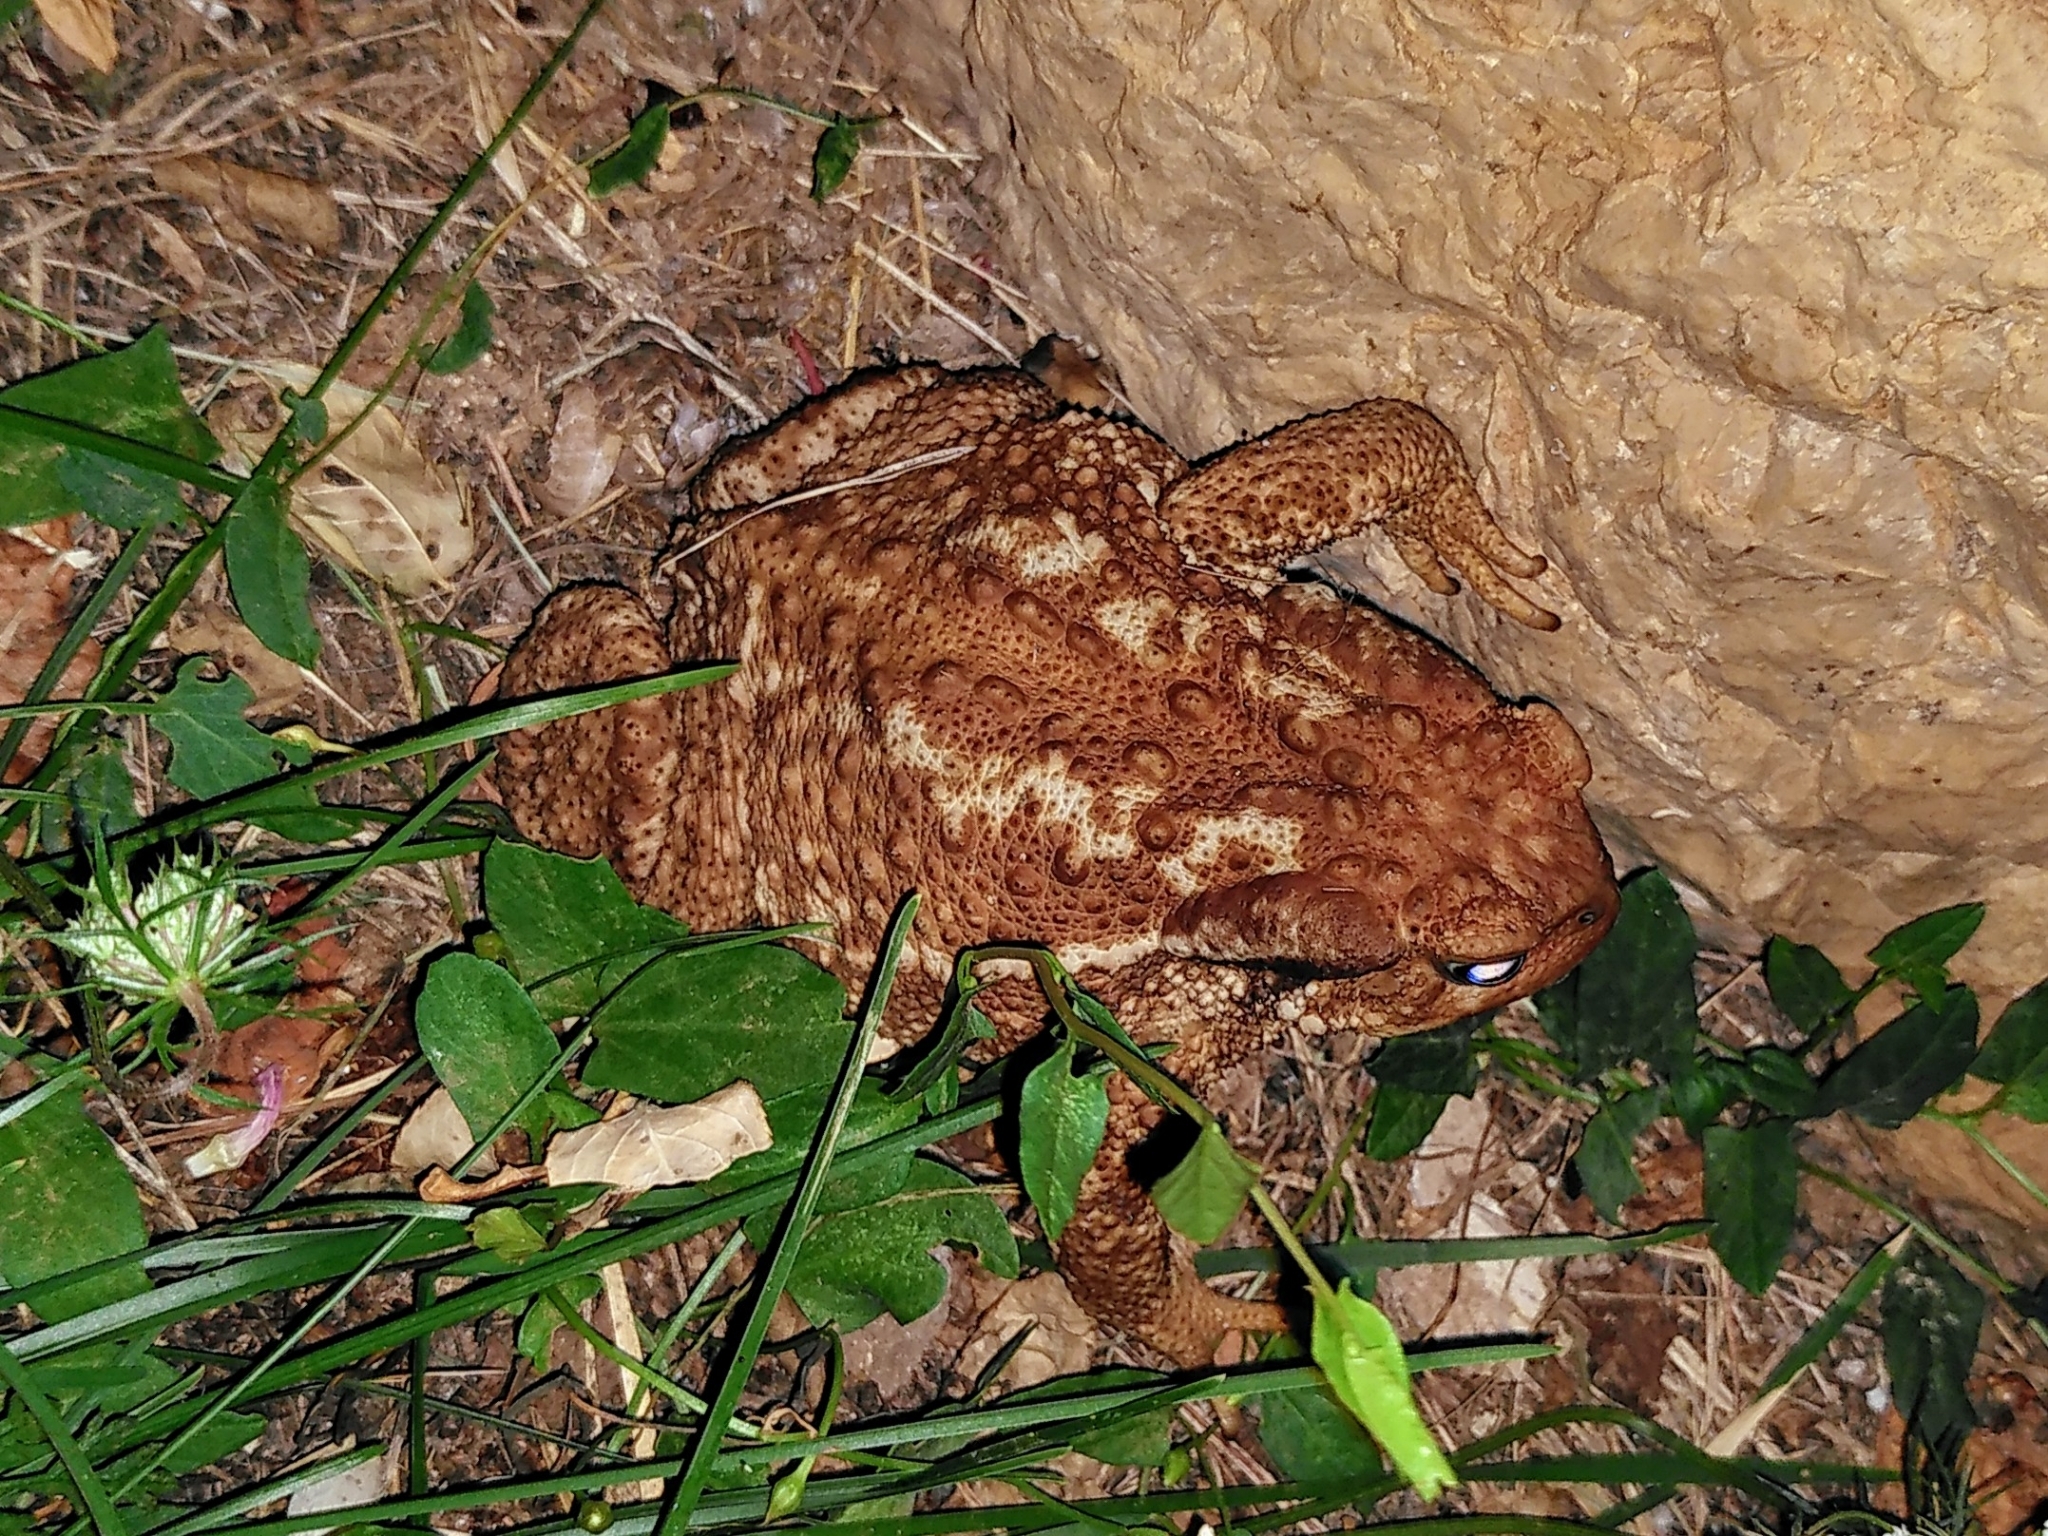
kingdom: Animalia
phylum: Chordata
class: Amphibia
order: Anura
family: Bufonidae
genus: Bufo
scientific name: Bufo spinosus
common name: Western common toad
